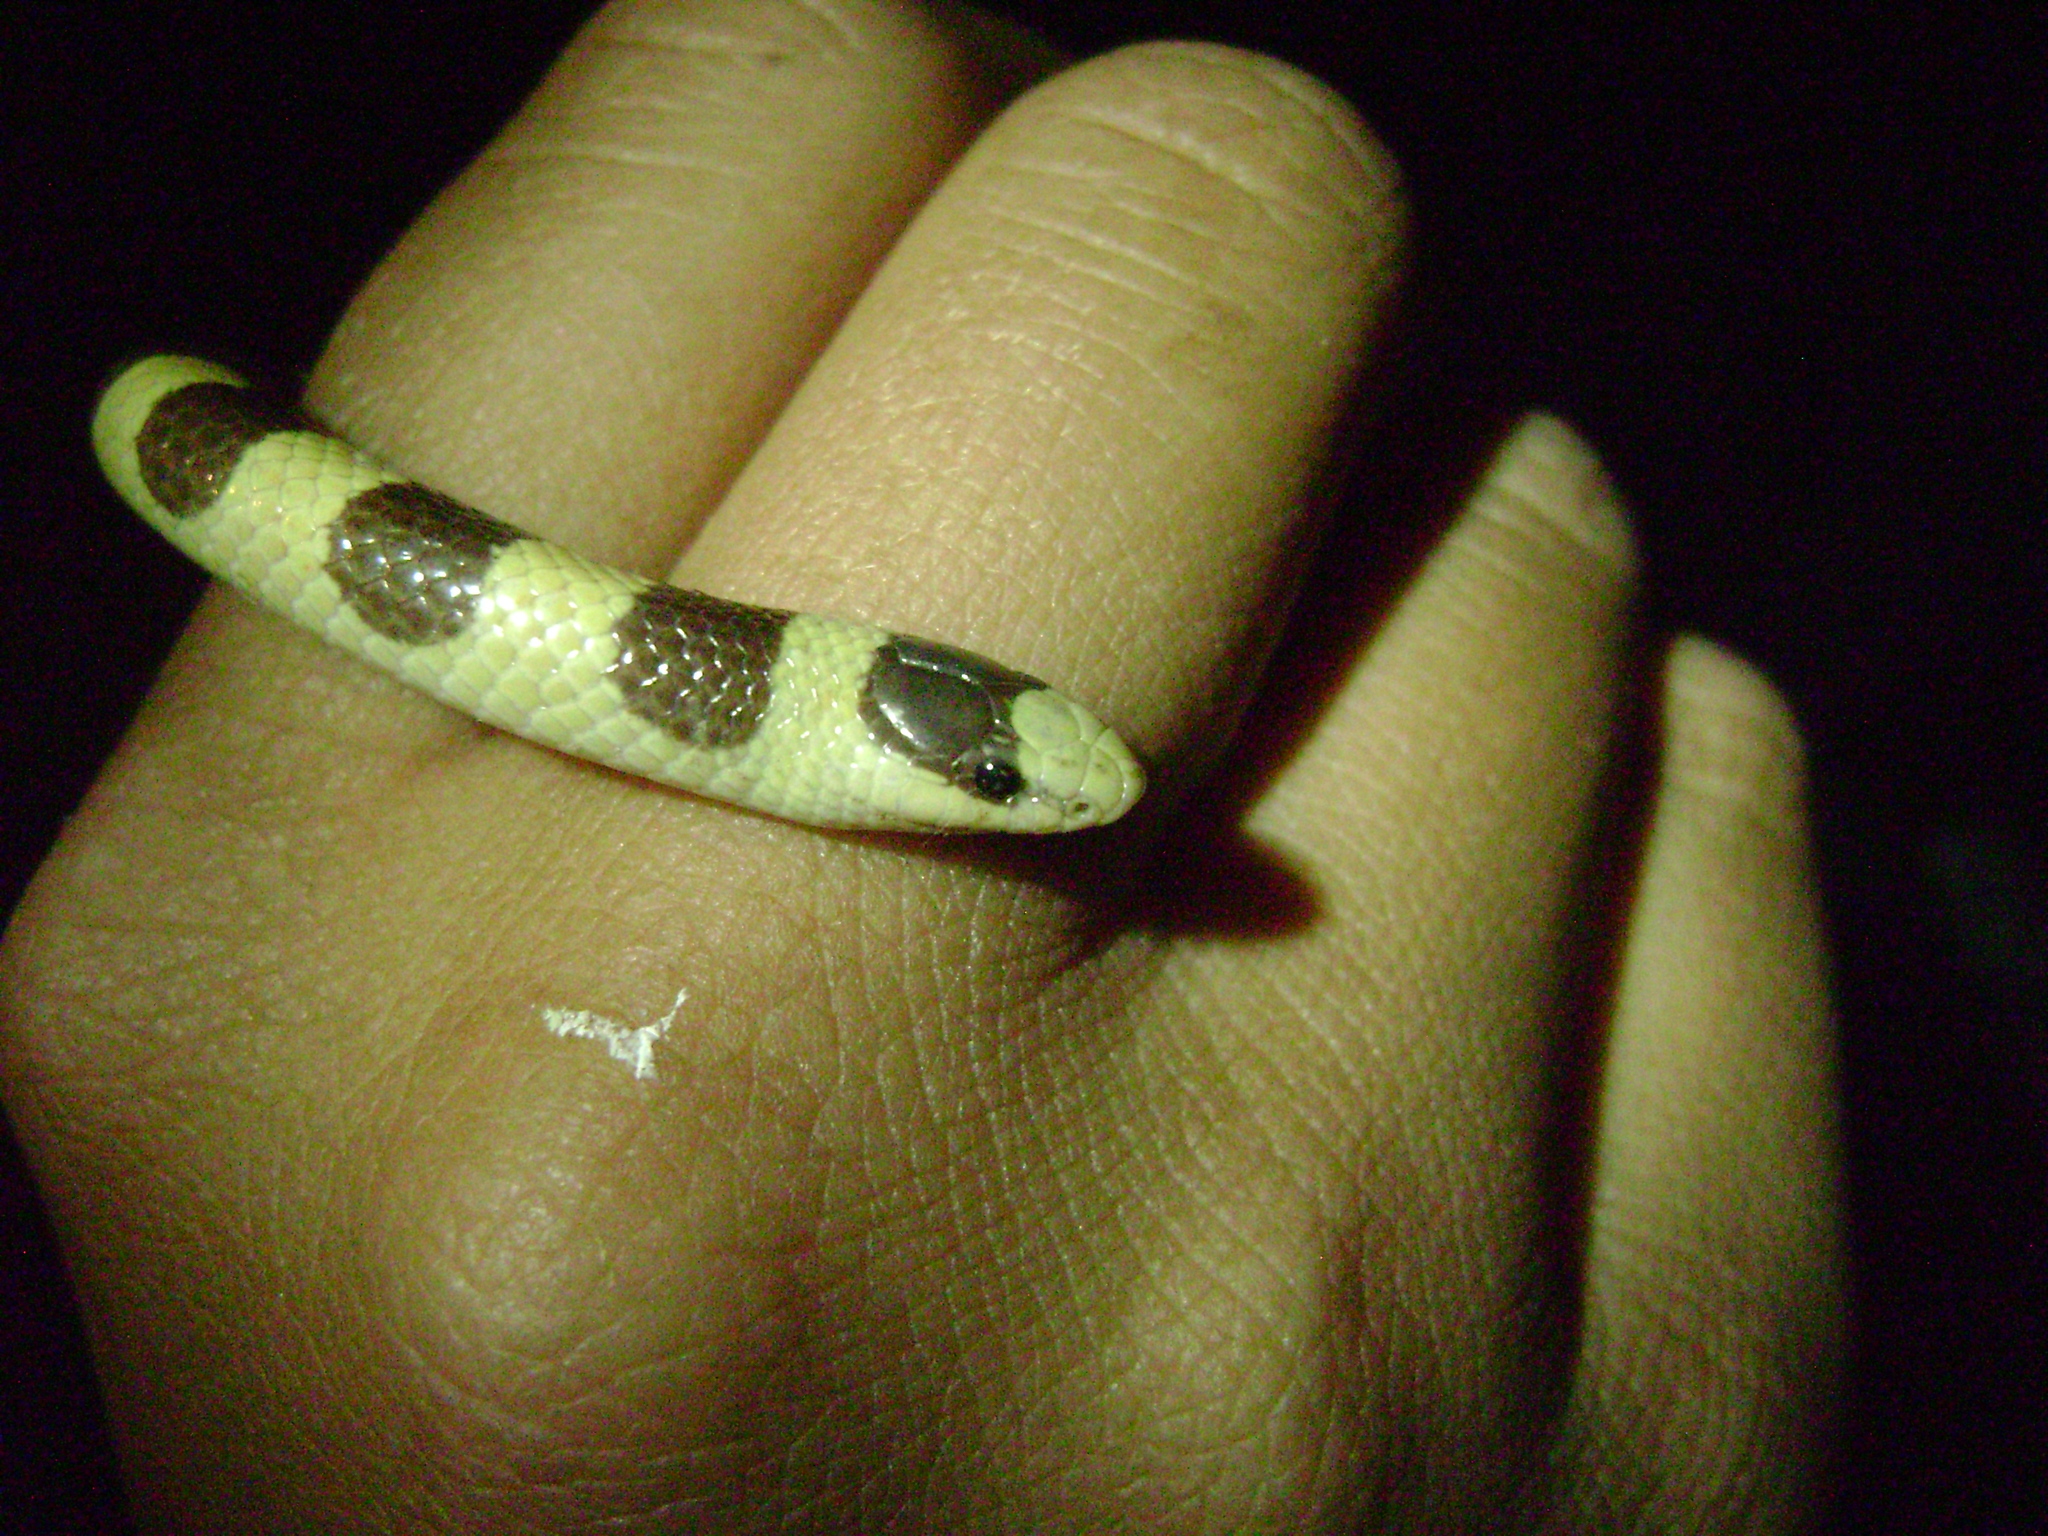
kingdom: Animalia
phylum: Chordata
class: Squamata
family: Colubridae
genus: Sonora
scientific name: Sonora occipitalis
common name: Western shovelnose snake
